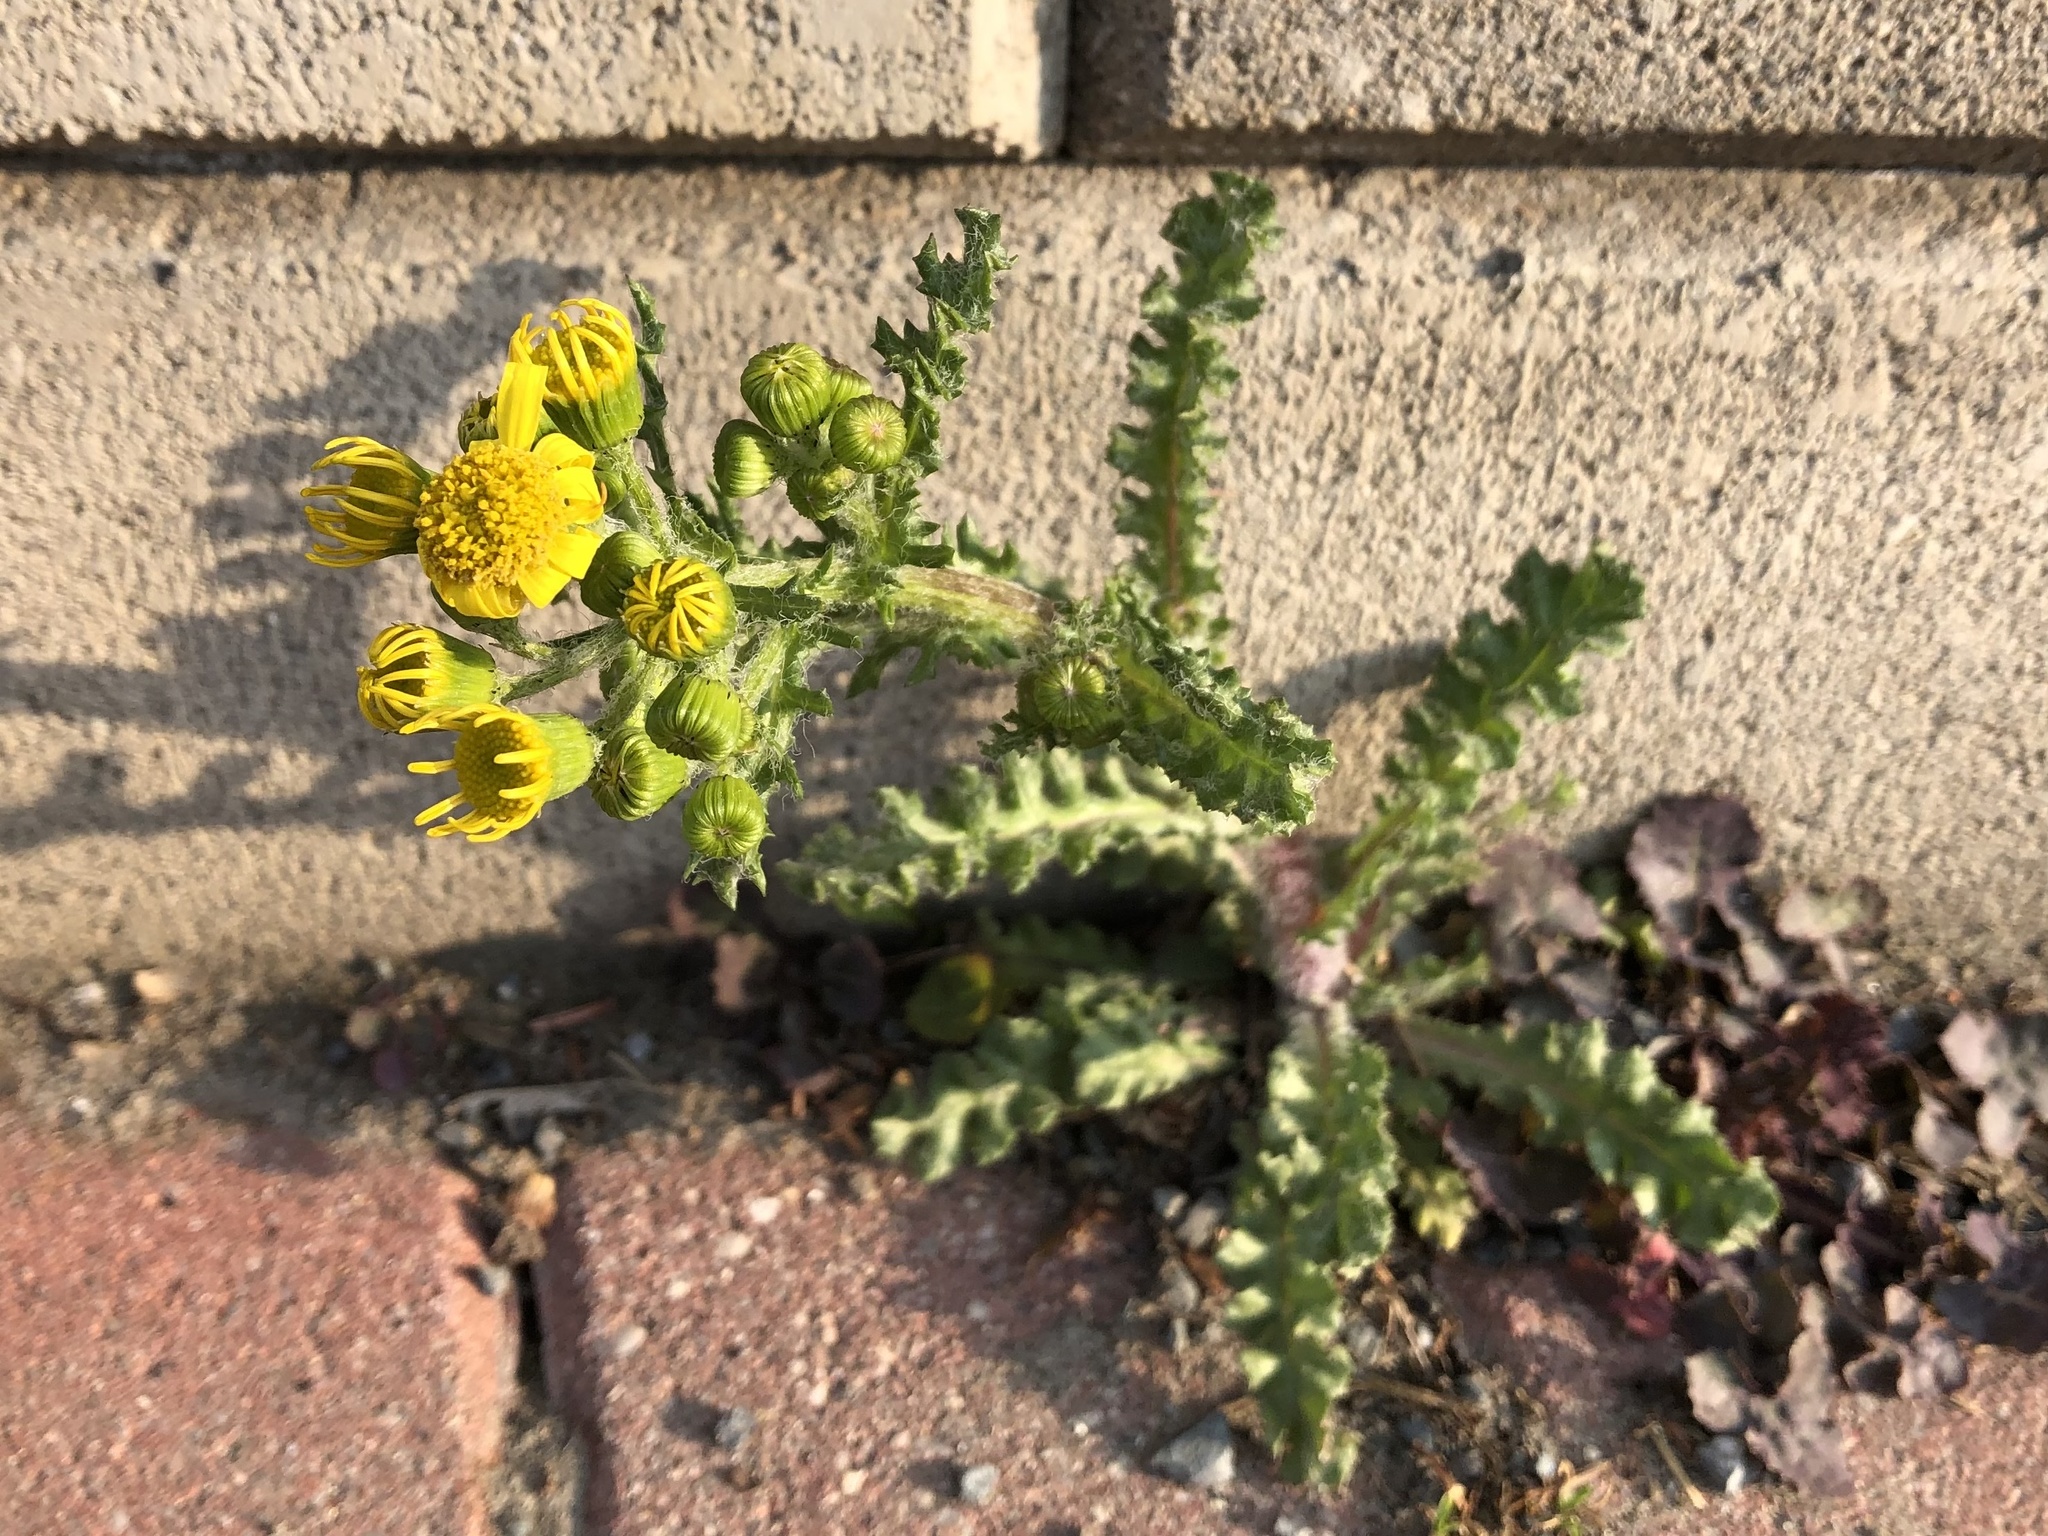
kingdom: Plantae
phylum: Tracheophyta
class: Magnoliopsida
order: Asterales
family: Asteraceae
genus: Senecio
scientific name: Senecio vernalis
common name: Eastern groundsel
